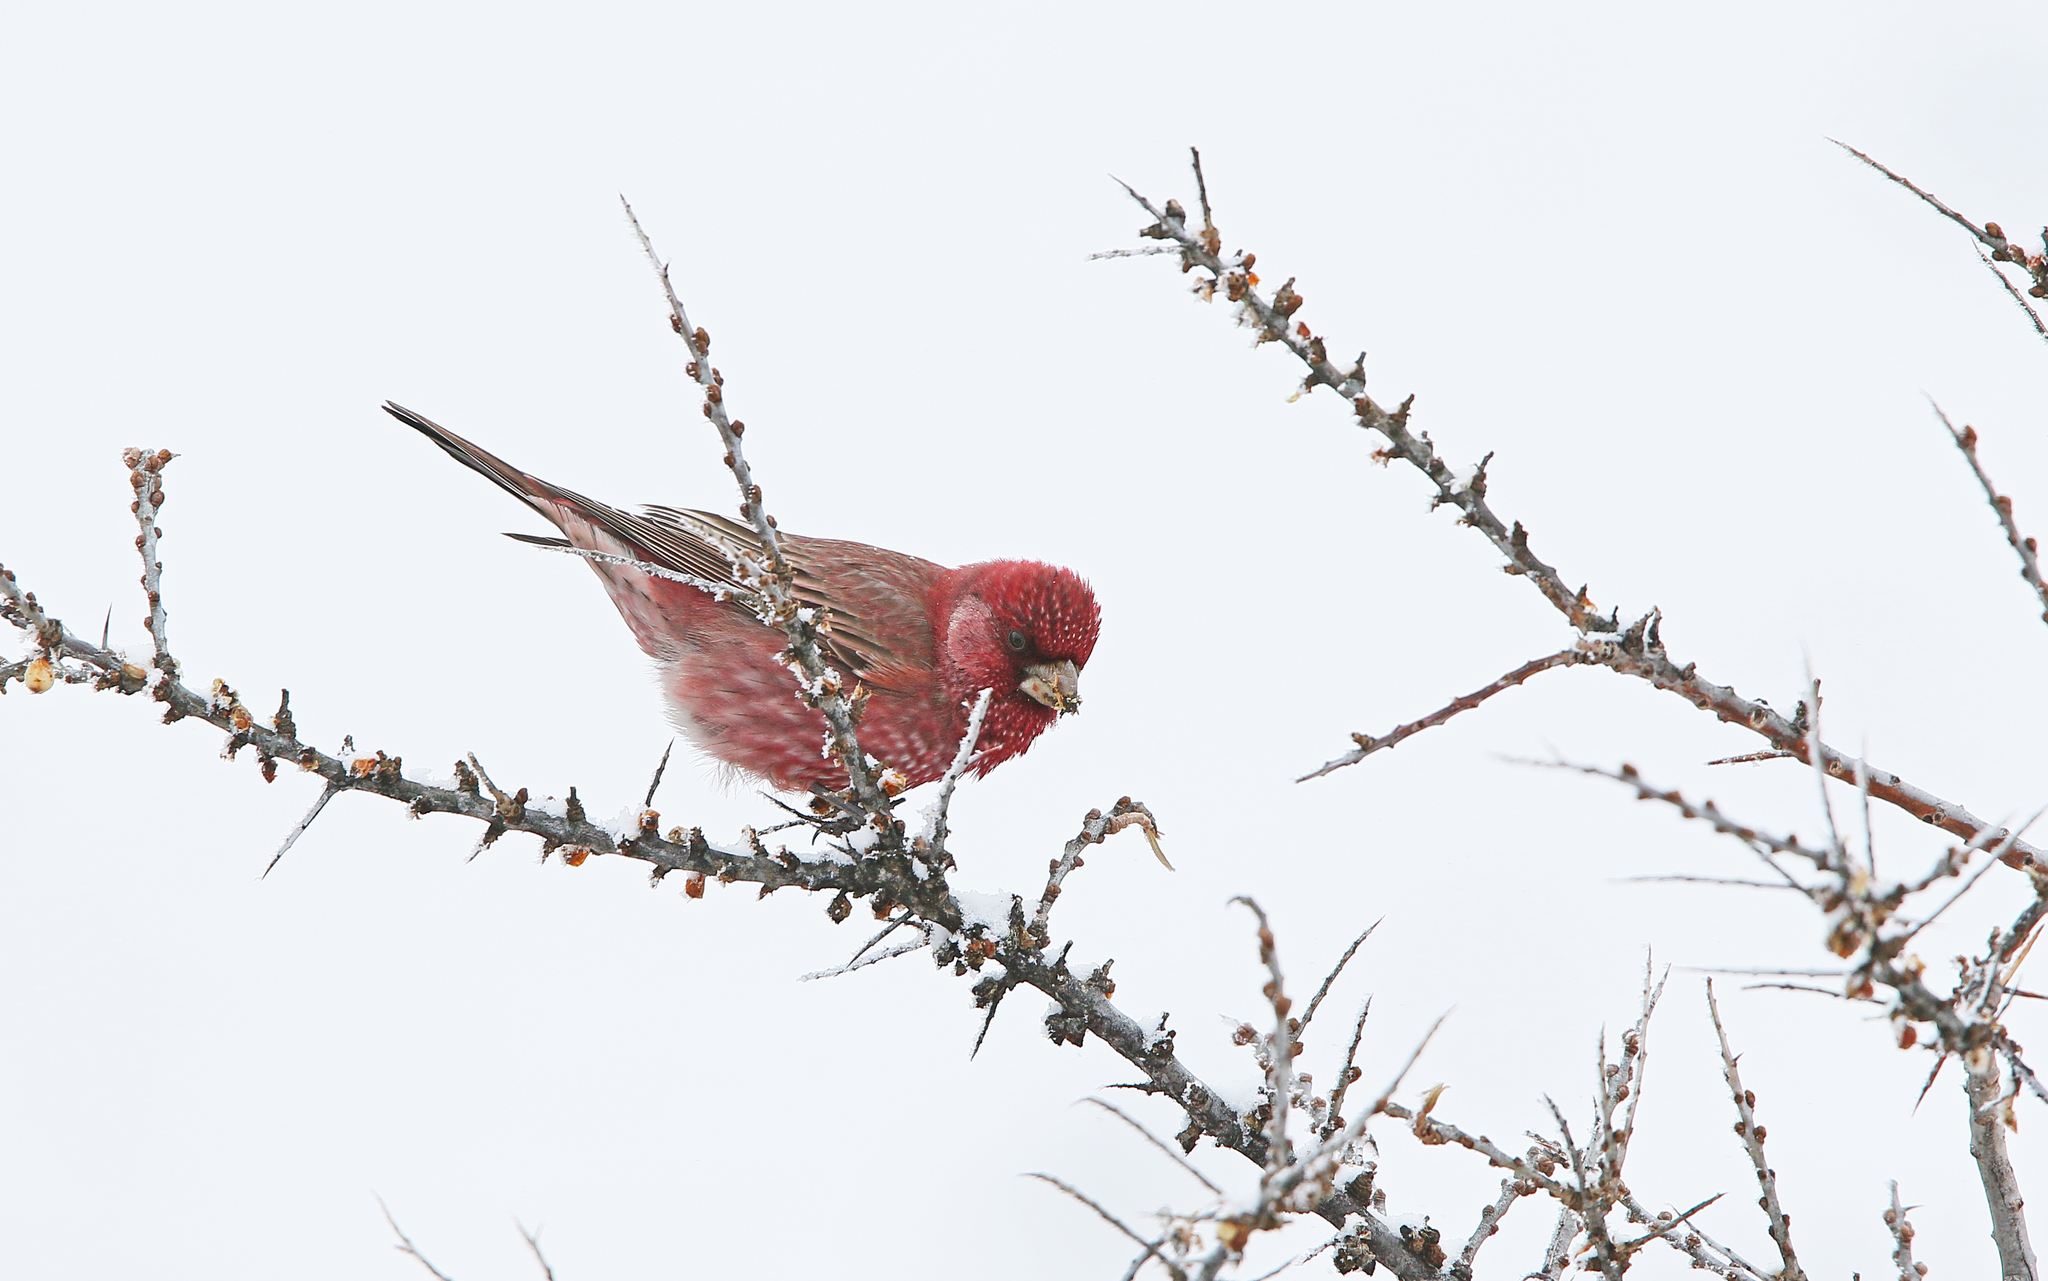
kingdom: Animalia
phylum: Chordata
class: Aves
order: Passeriformes
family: Fringillidae
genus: Carpodacus
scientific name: Carpodacus rubicilla
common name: Great rosefinch
